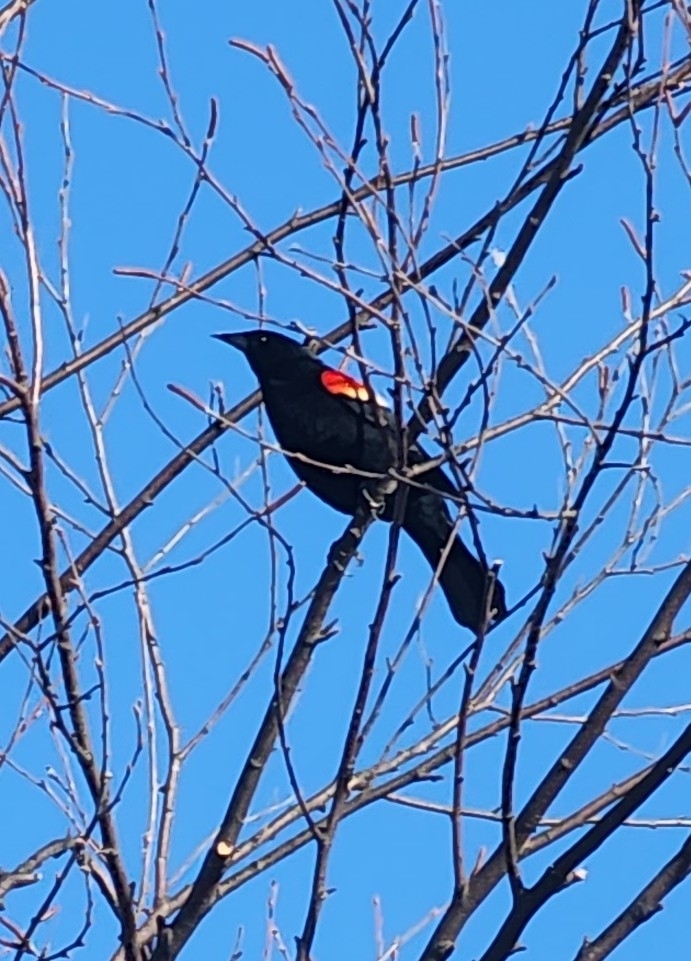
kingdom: Animalia
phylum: Chordata
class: Aves
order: Passeriformes
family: Icteridae
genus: Agelaius
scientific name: Agelaius phoeniceus
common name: Red-winged blackbird
